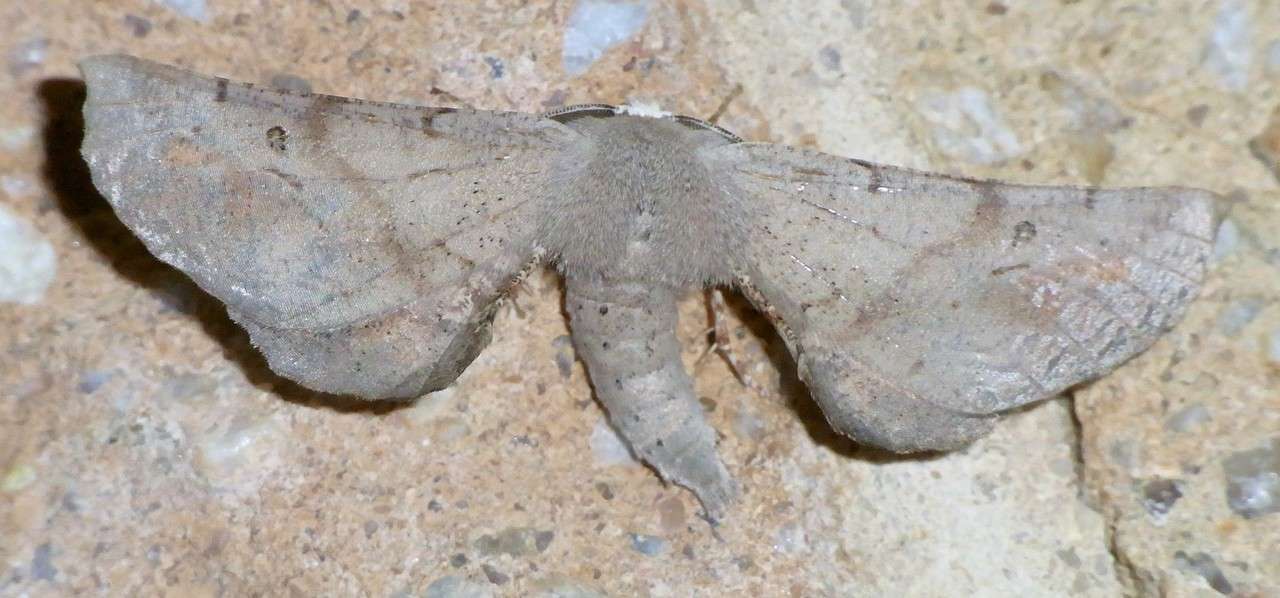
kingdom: Animalia
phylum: Arthropoda
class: Insecta
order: Lepidoptera
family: Geometridae
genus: Circopetes
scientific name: Circopetes obtusata
